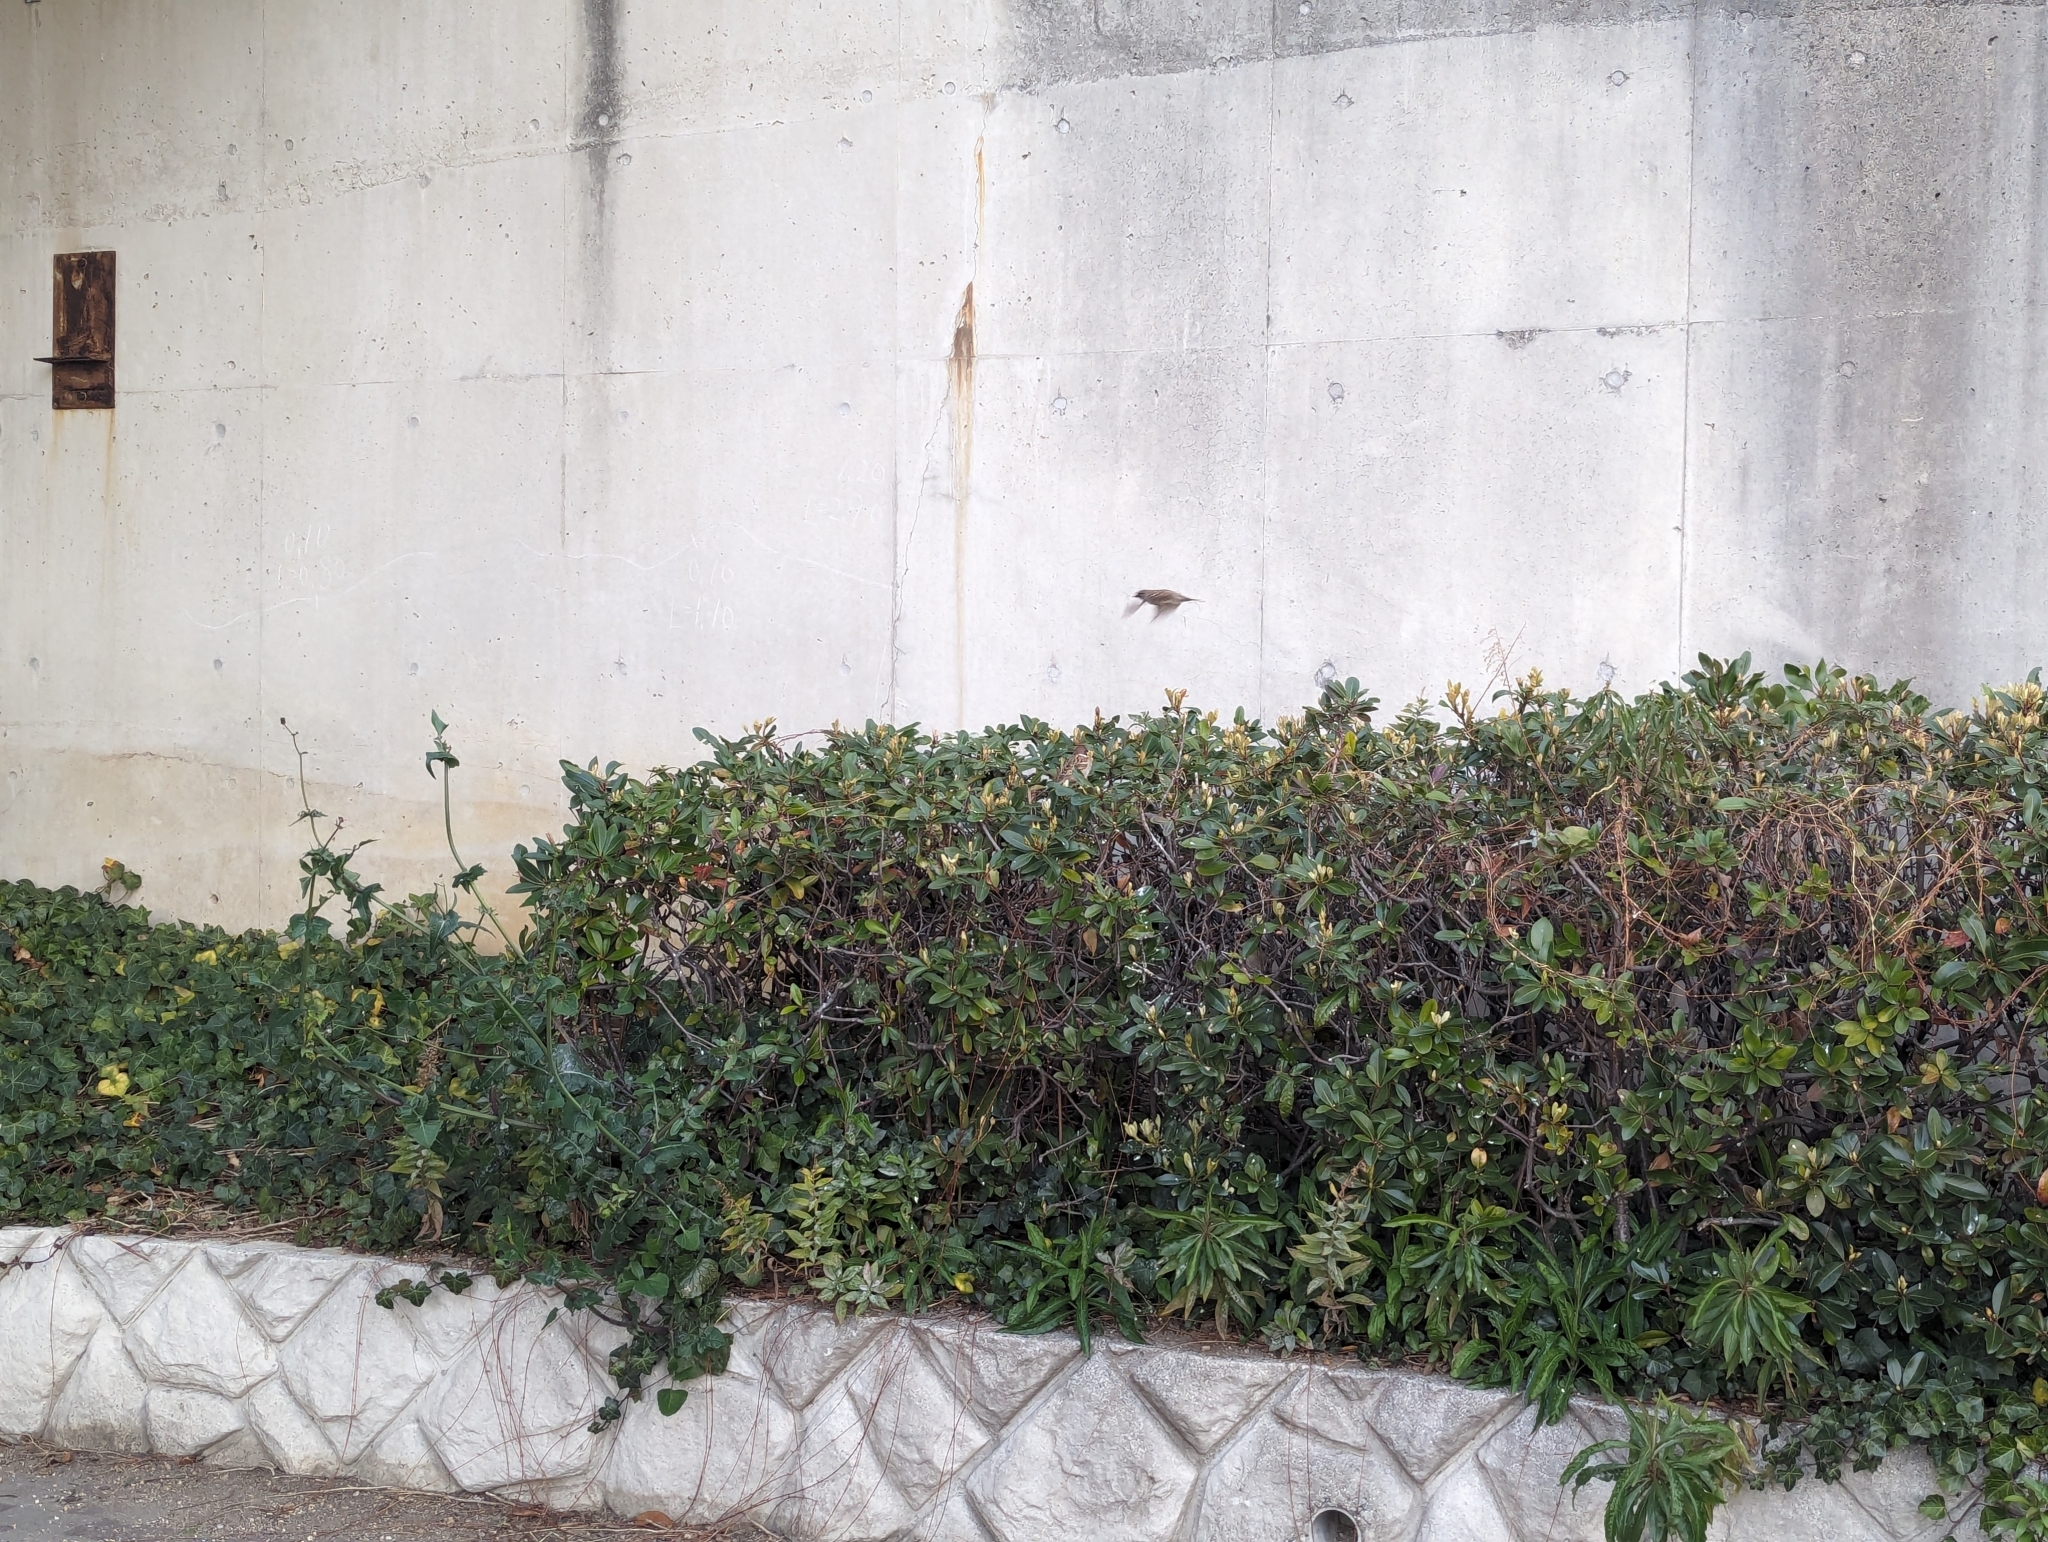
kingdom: Animalia
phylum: Chordata
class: Aves
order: Passeriformes
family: Passeridae
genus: Passer
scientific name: Passer montanus
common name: Eurasian tree sparrow
